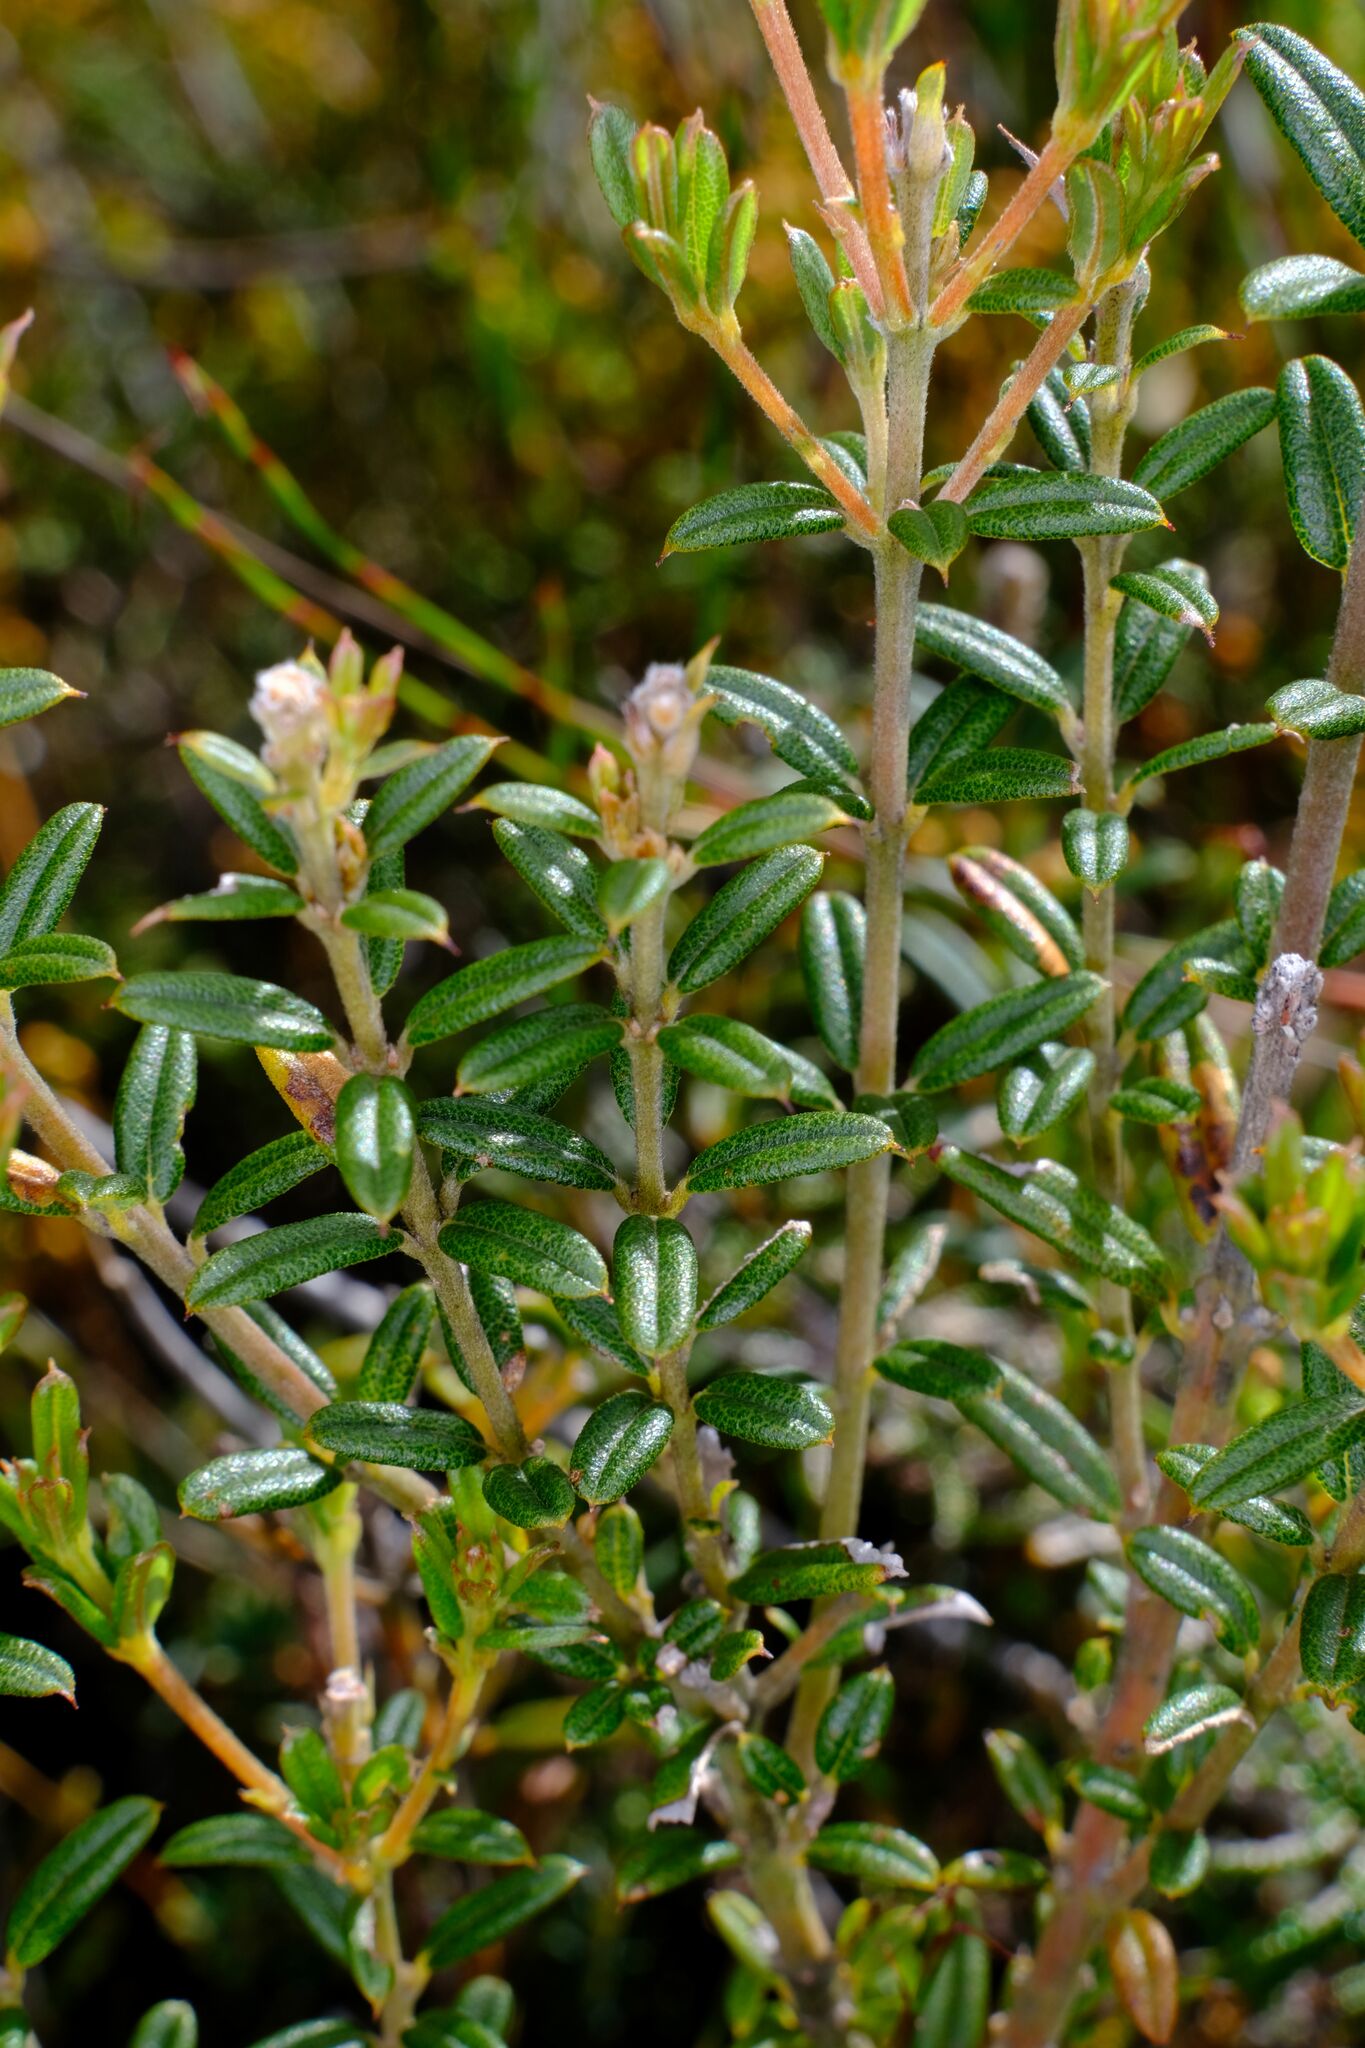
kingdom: Plantae
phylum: Tracheophyta
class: Magnoliopsida
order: Fabales
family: Fabaceae
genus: Oxylobium
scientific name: Oxylobium ellipticum
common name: Golden shaggy-pea
